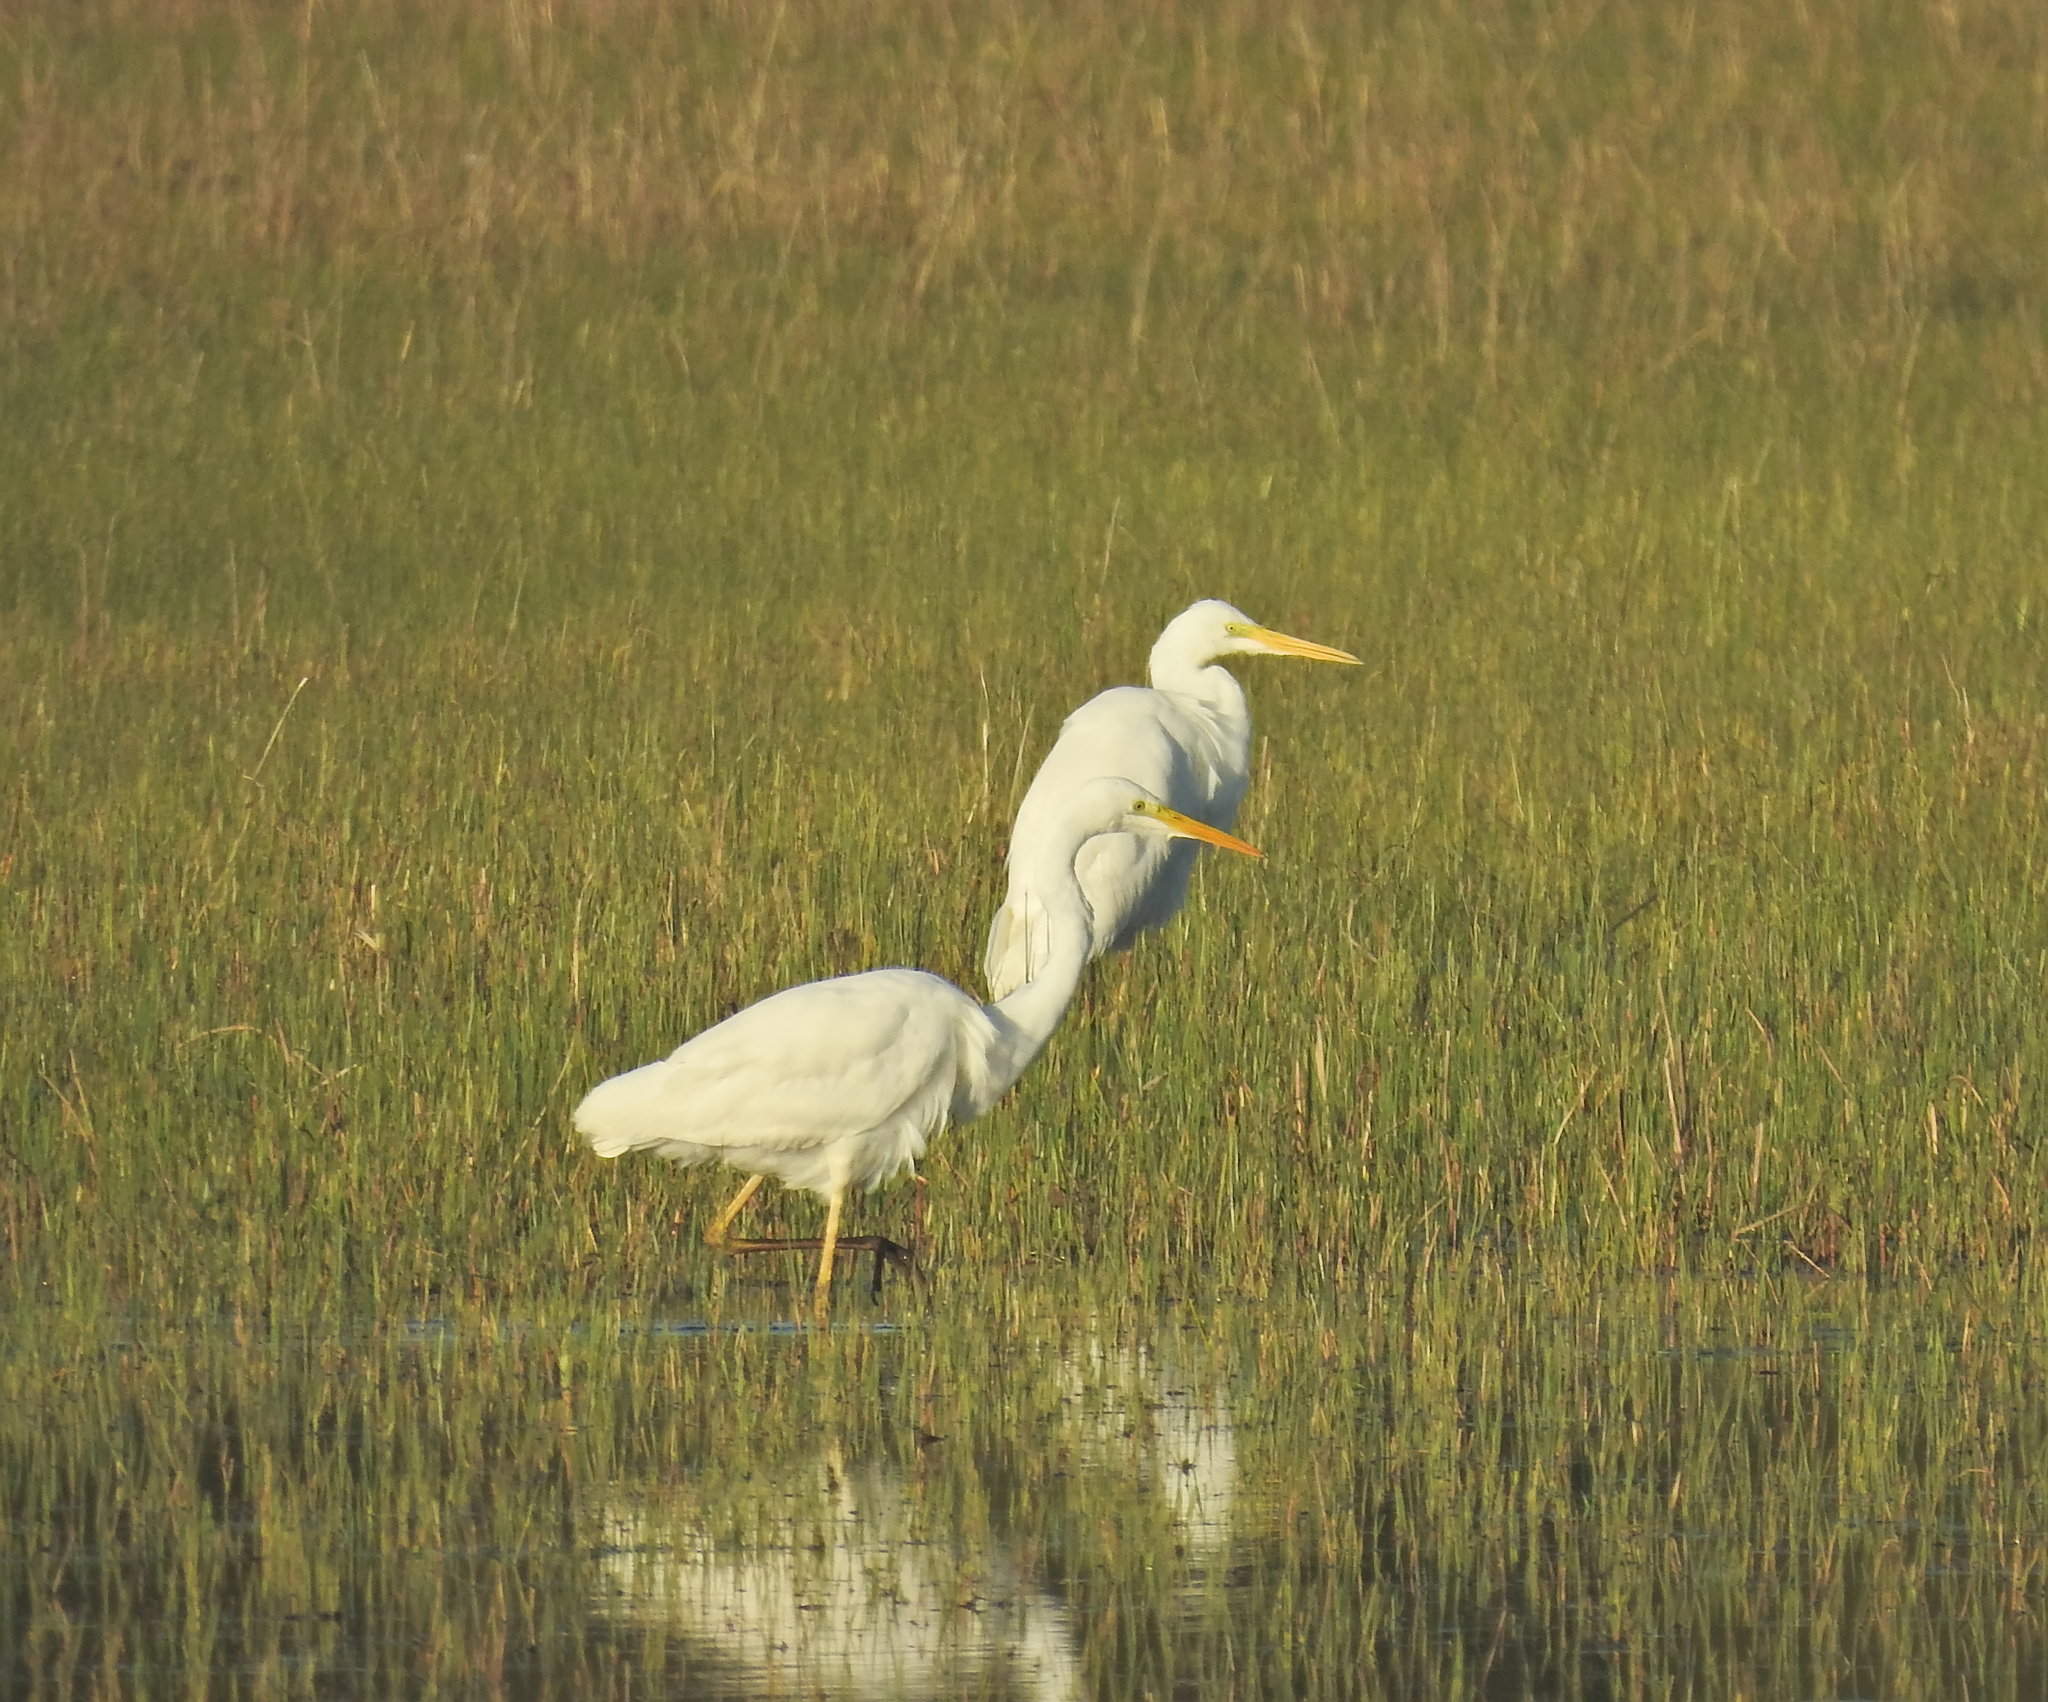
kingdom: Animalia
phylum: Chordata
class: Aves
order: Pelecaniformes
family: Ardeidae
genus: Ardea
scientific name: Ardea alba
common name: Great egret
